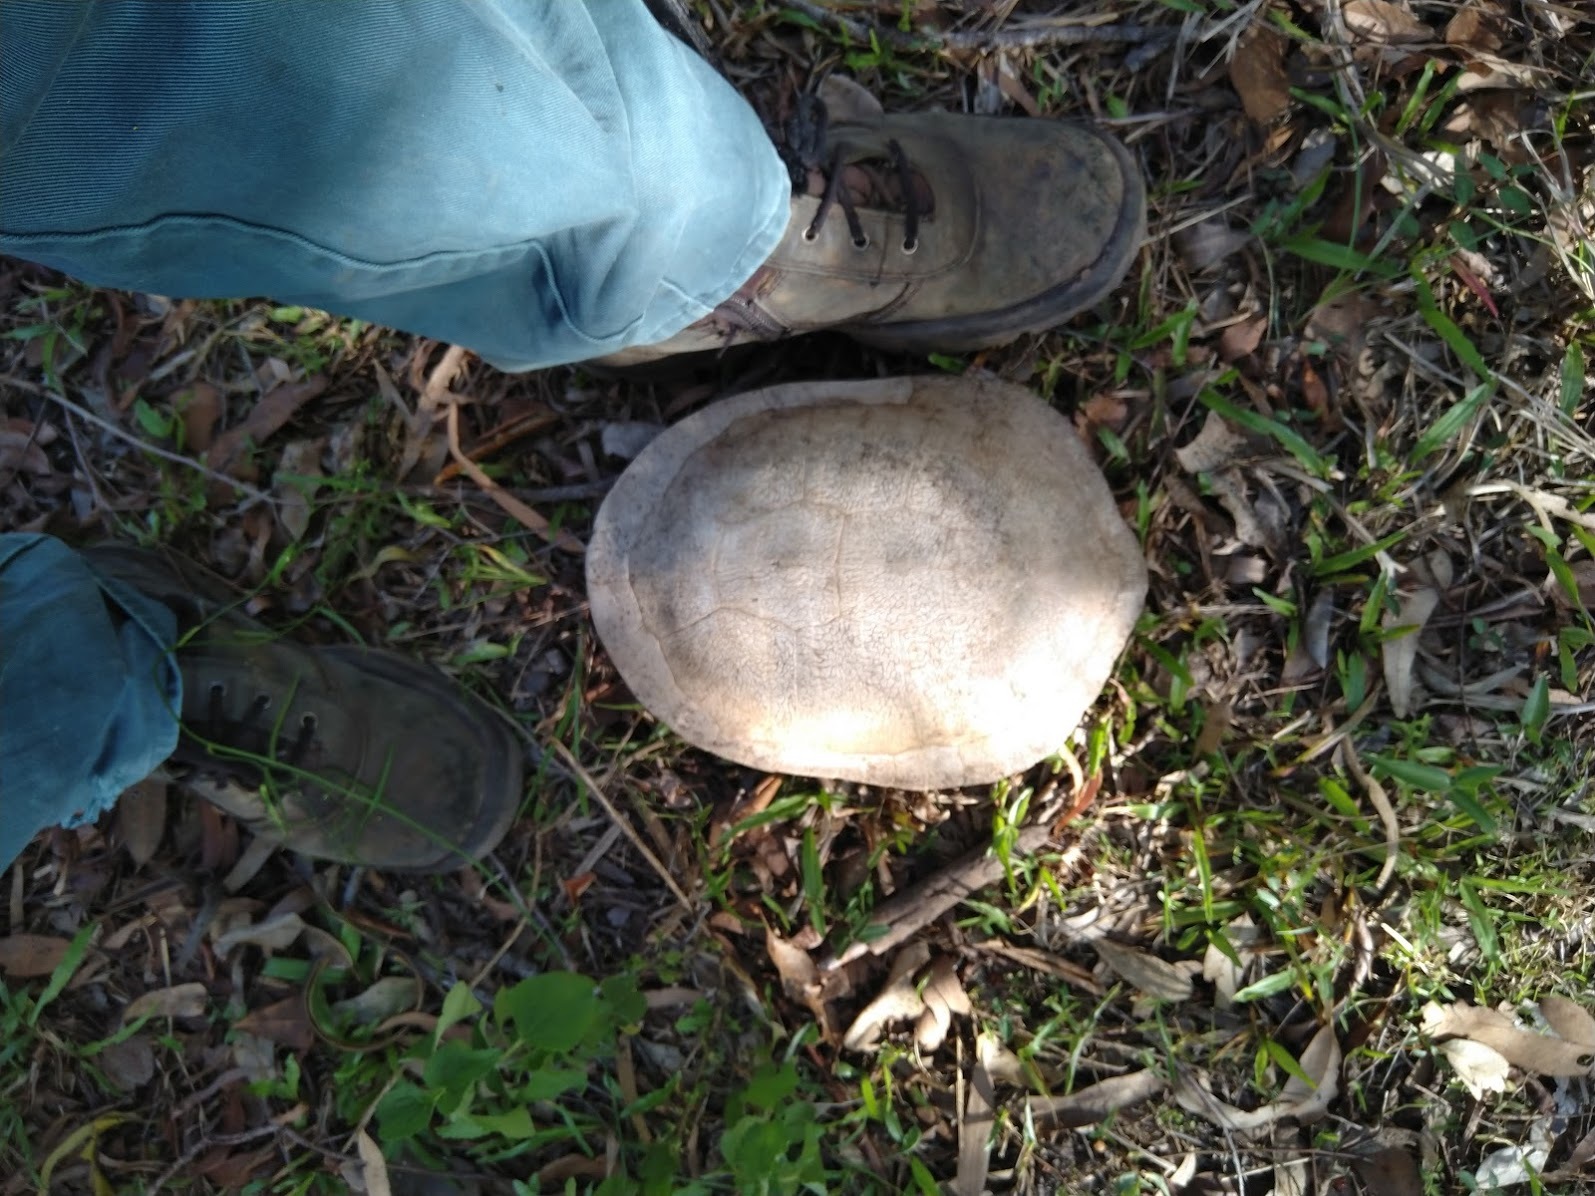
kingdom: Animalia
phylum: Chordata
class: Testudines
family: Chelidae
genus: Chelodina
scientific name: Chelodina expansa
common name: Giant snakeneck turtle
